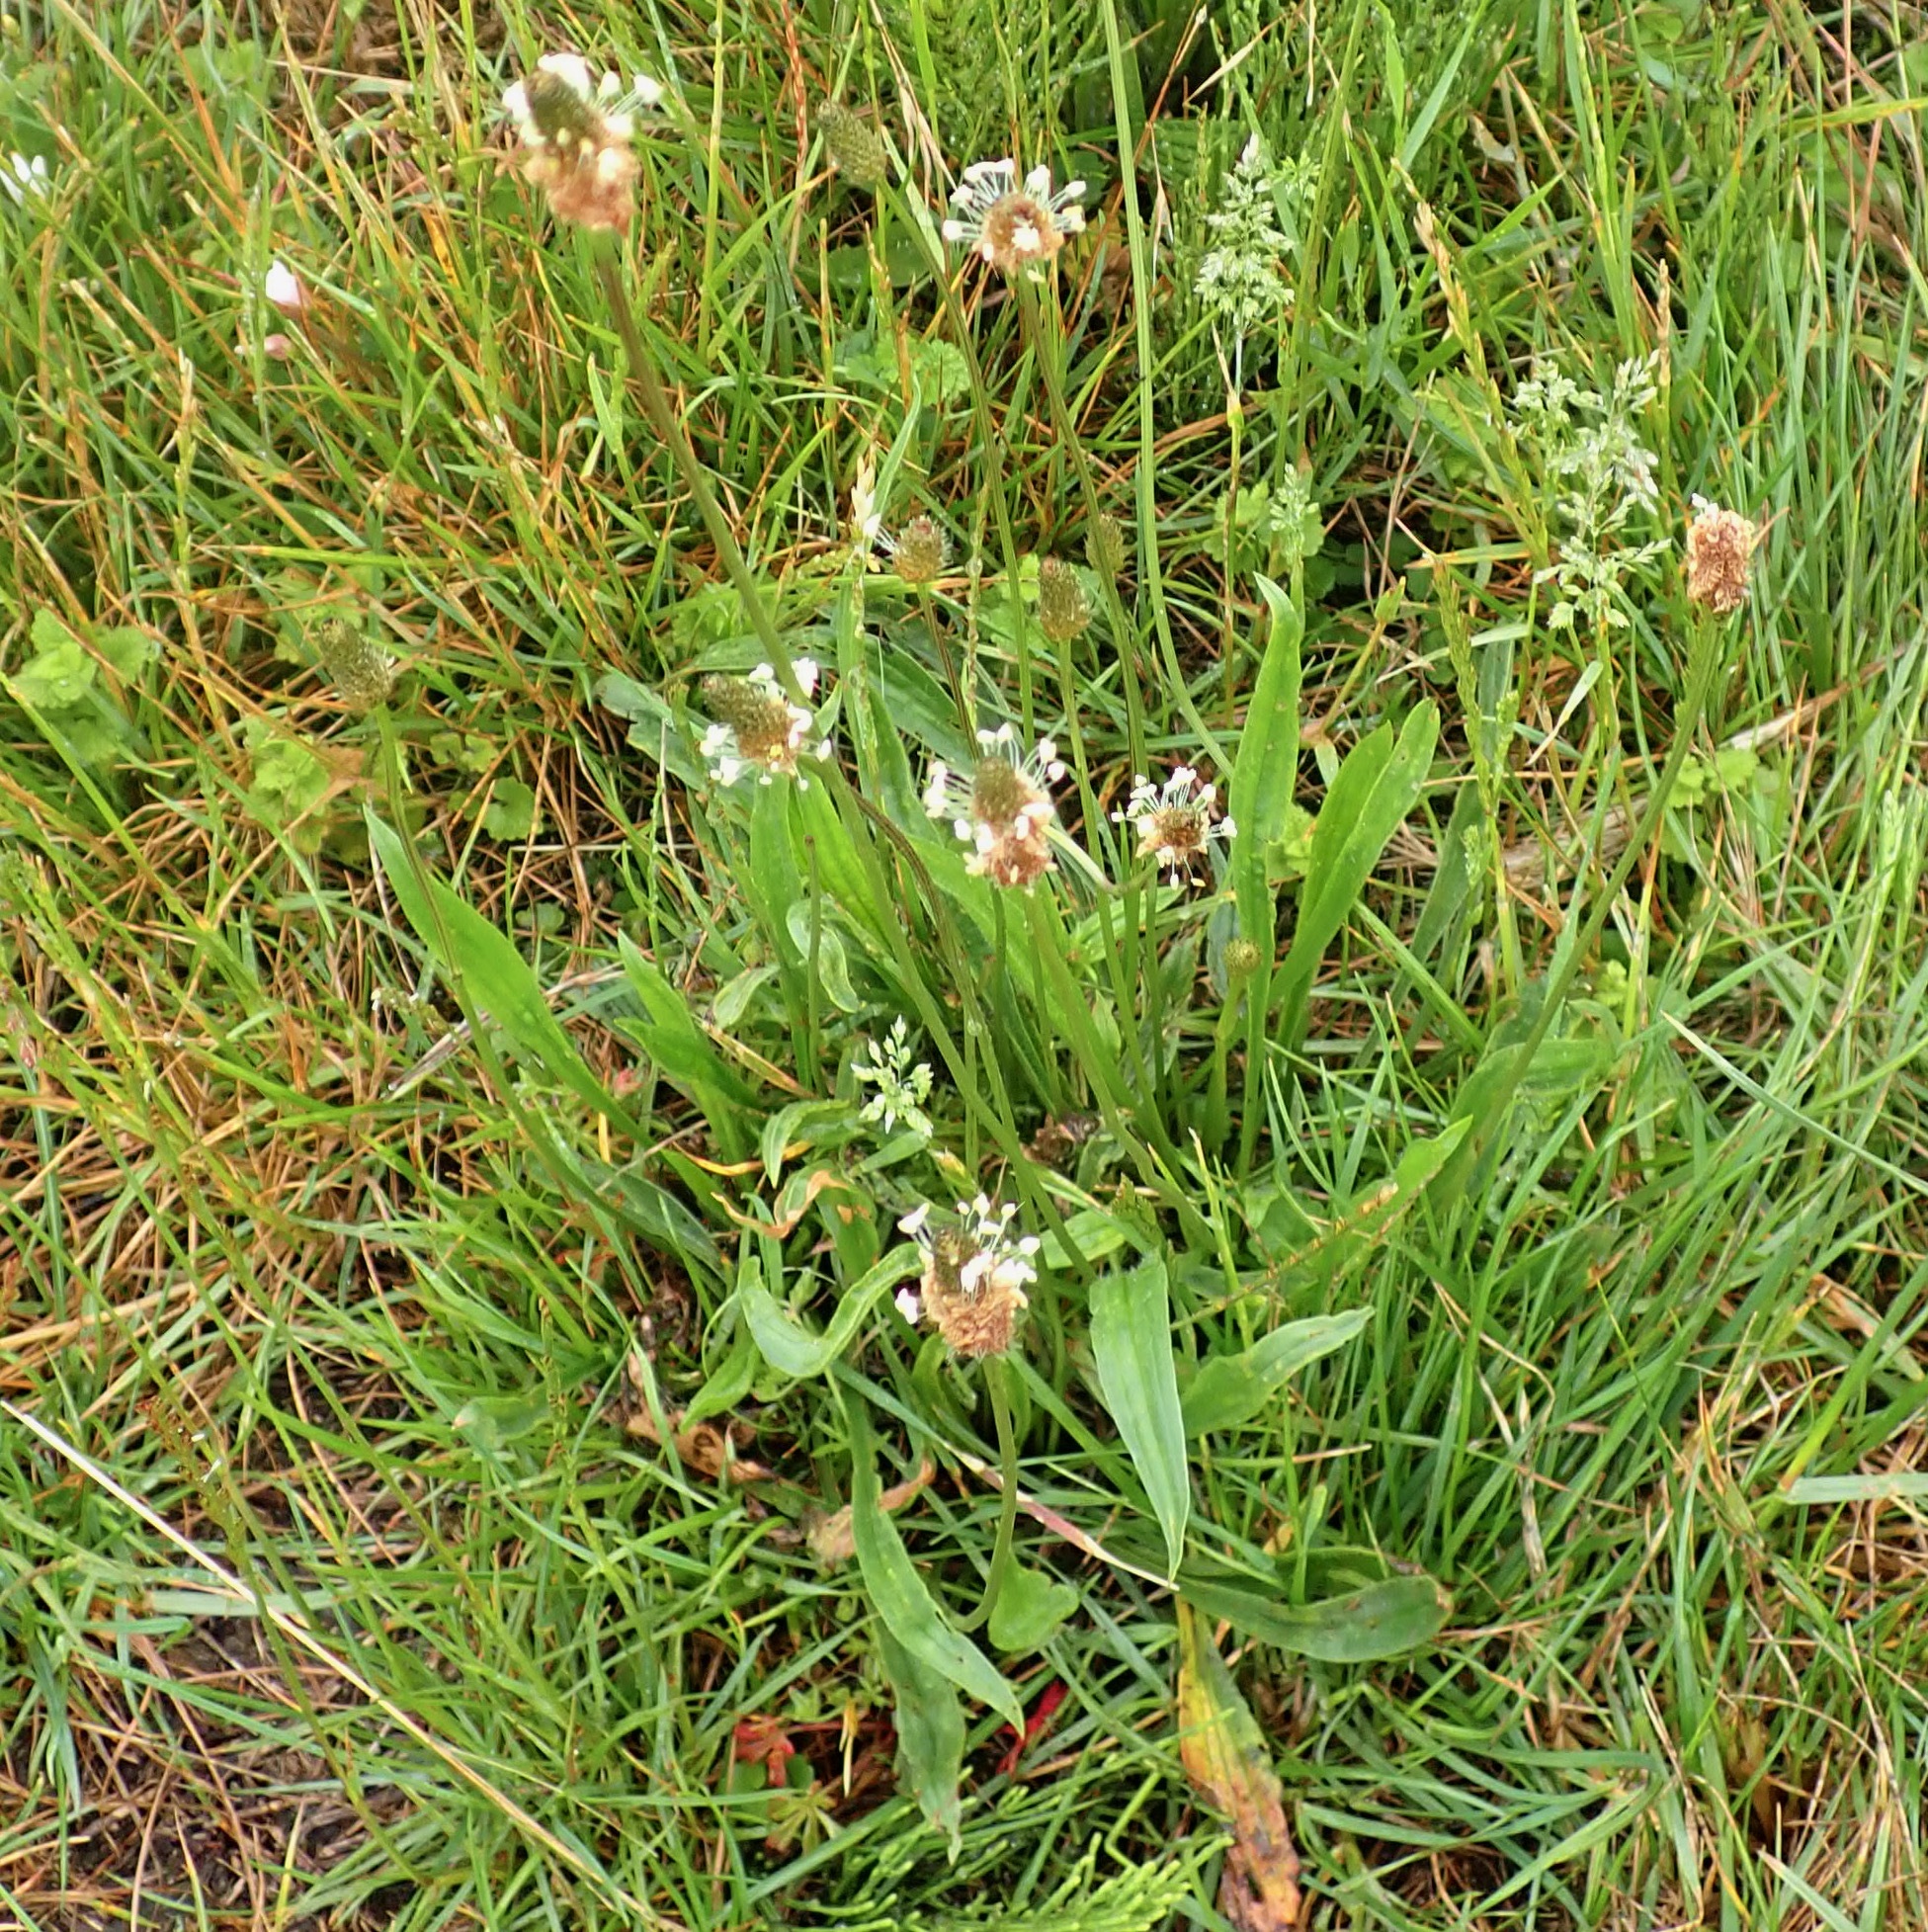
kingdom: Plantae
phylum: Tracheophyta
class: Magnoliopsida
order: Lamiales
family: Plantaginaceae
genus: Plantago
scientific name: Plantago lanceolata
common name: Ribwort plantain
